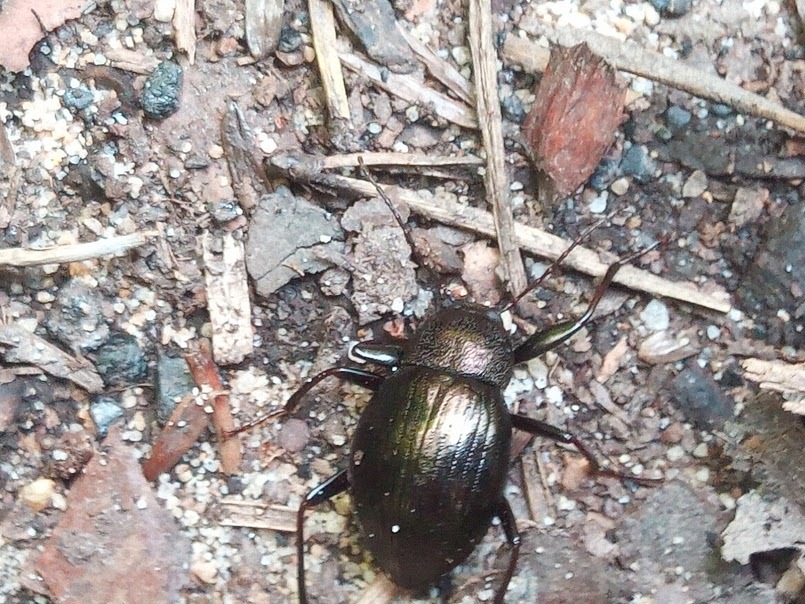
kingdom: Animalia
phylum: Arthropoda
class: Insecta
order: Coleoptera
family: Tenebrionidae
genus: Meracantha
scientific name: Meracantha contracta
